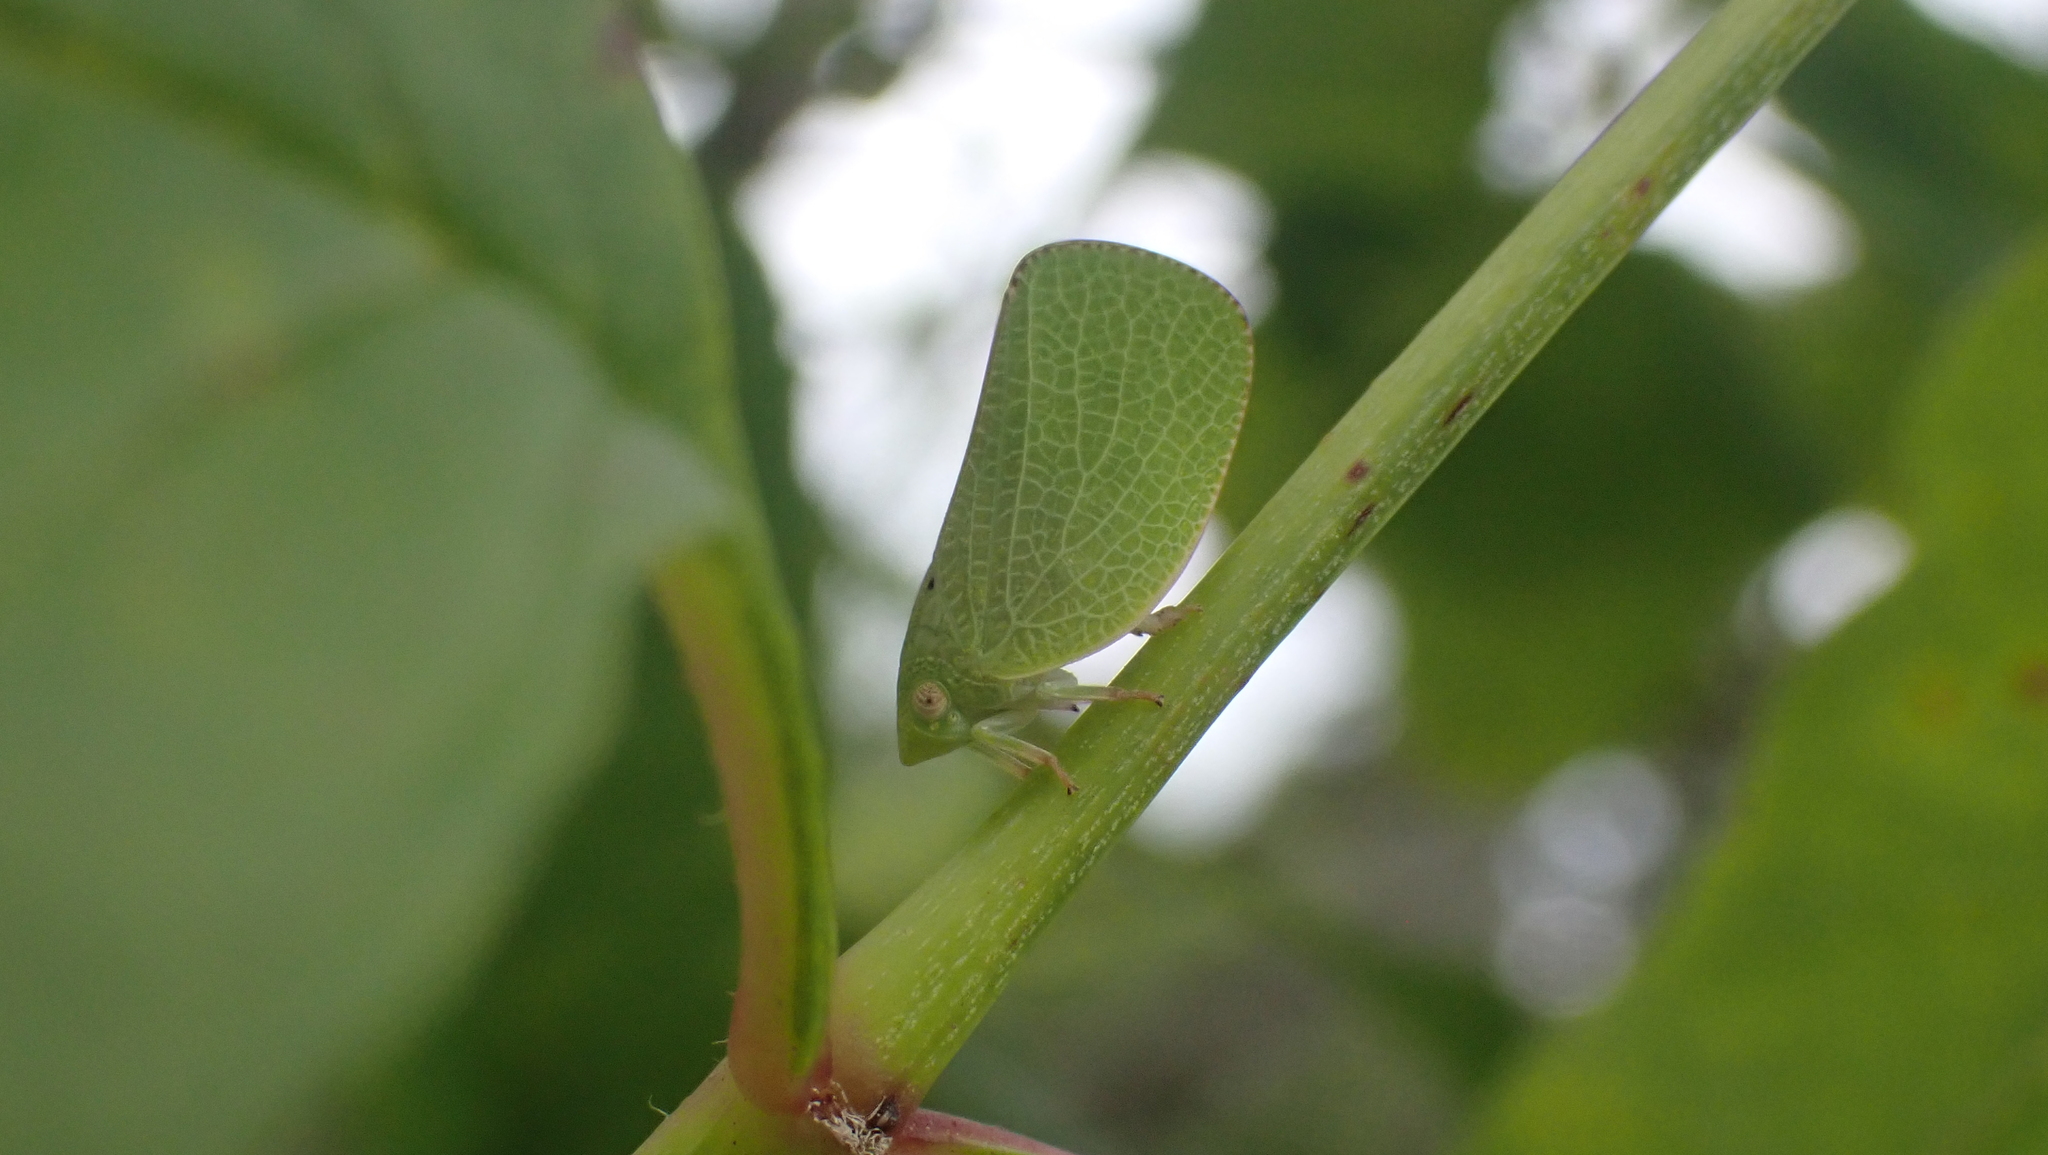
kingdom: Animalia
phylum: Arthropoda
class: Insecta
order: Hemiptera
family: Acanaloniidae
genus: Acanalonia
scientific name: Acanalonia conica
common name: Green cone-headed planthopper
